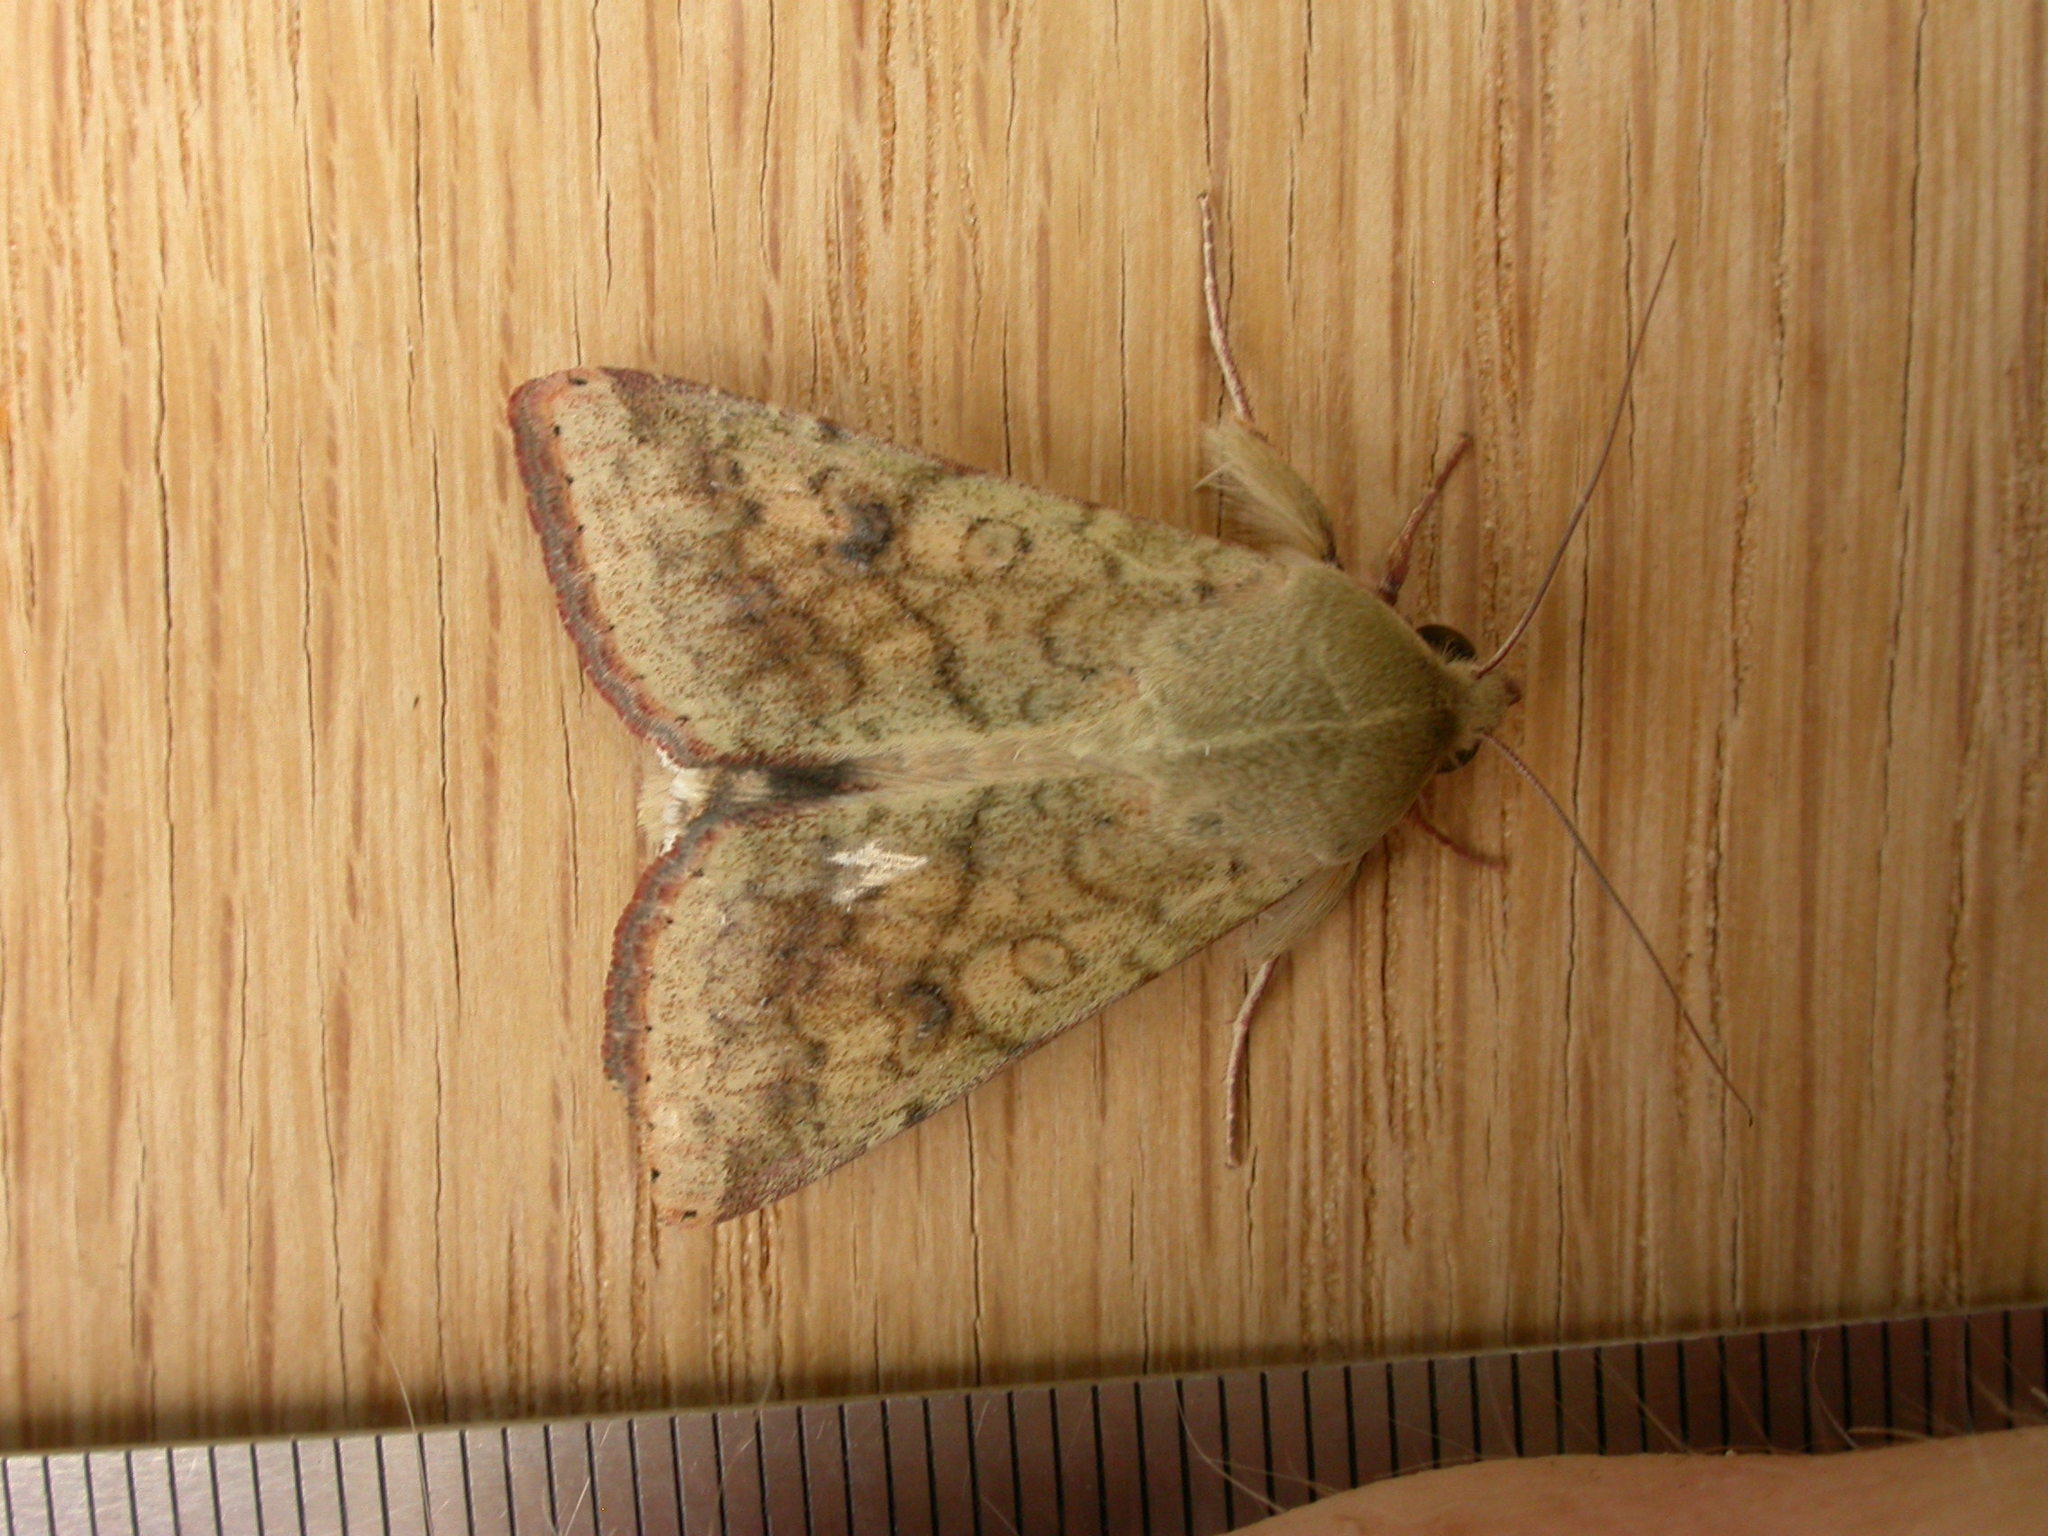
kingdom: Animalia
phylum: Arthropoda
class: Insecta
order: Lepidoptera
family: Noctuidae
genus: Helicoverpa
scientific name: Helicoverpa armigera
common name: Cotton bollworm
